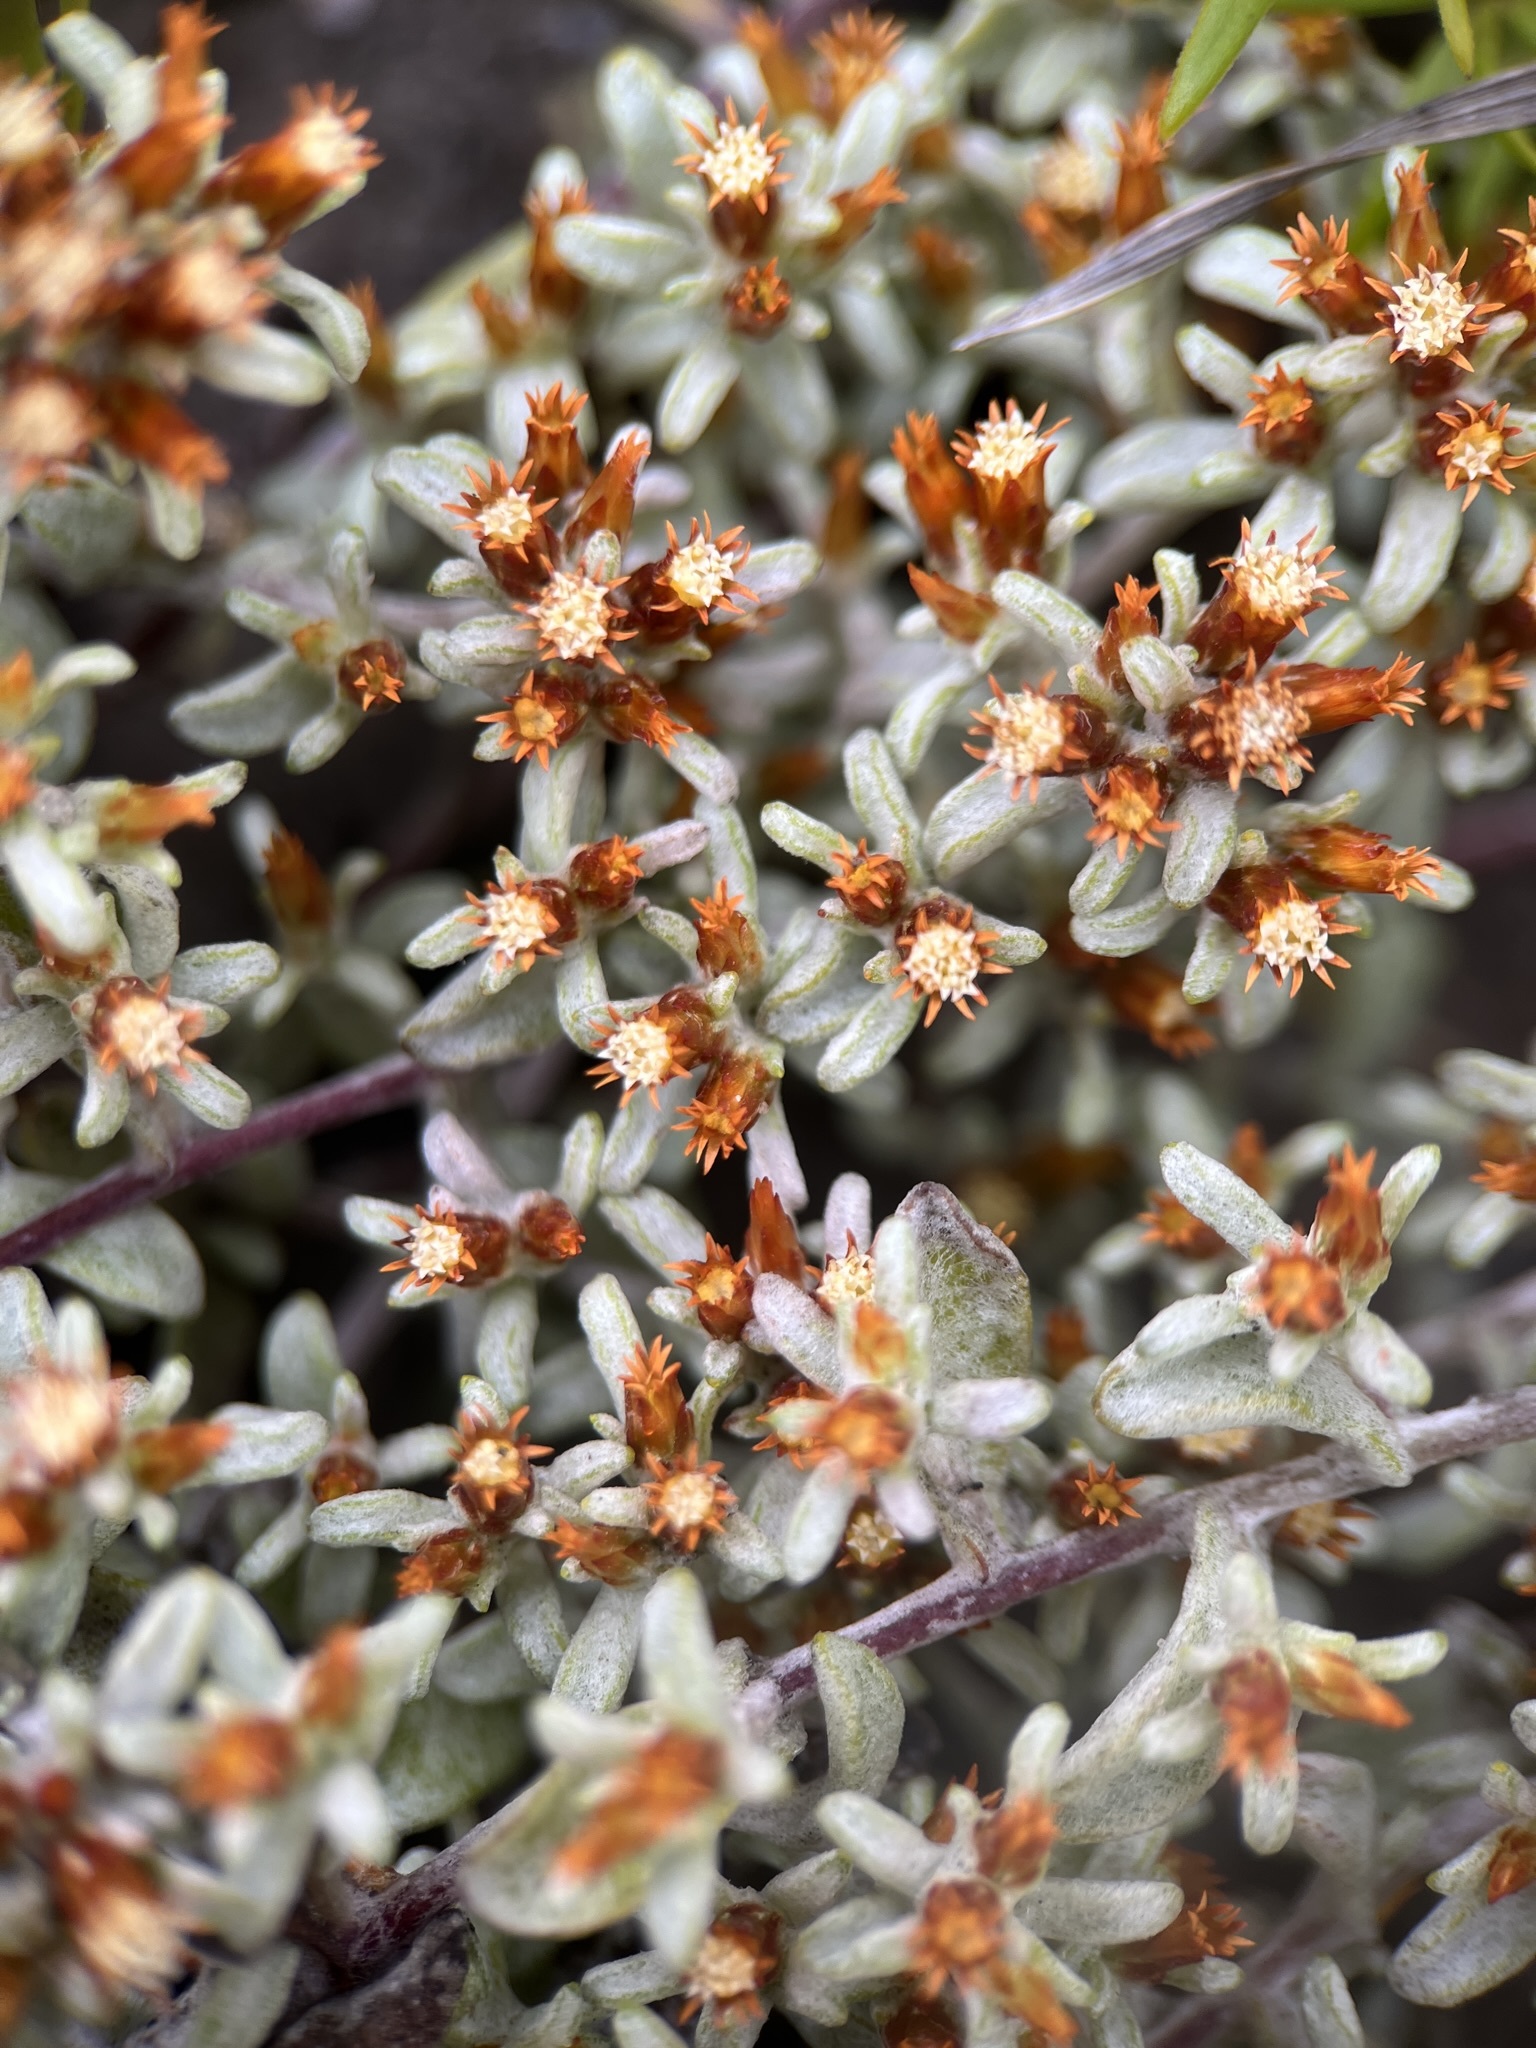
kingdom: Plantae
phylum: Tracheophyta
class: Magnoliopsida
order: Asterales
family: Asteraceae
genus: Helichrysum
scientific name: Helichrysum tinctum
